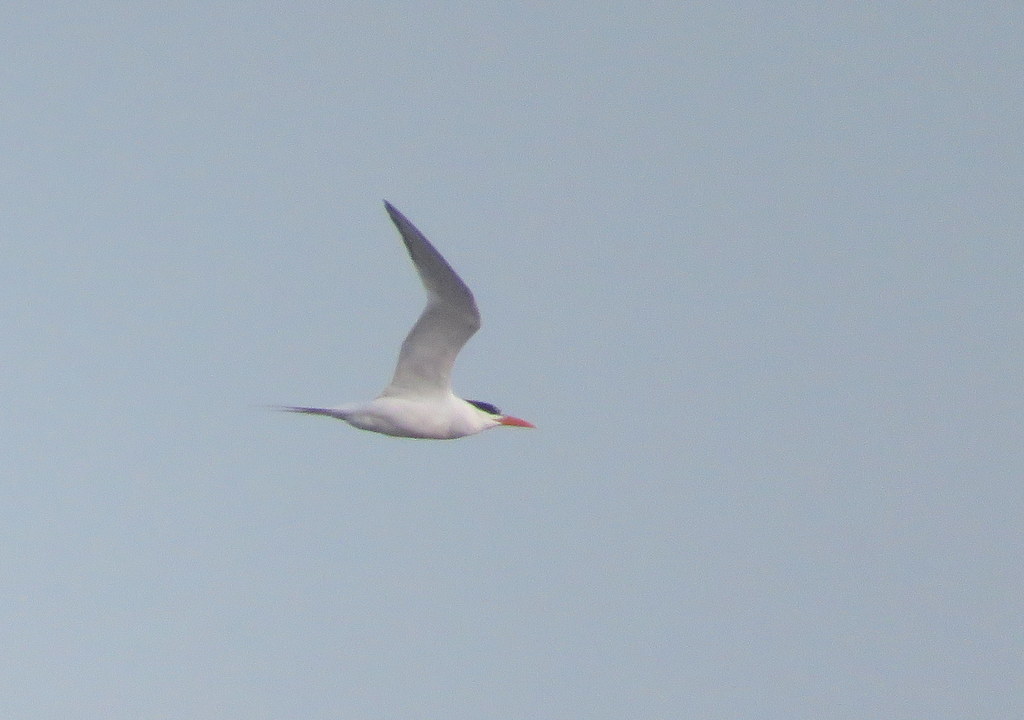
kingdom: Animalia
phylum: Chordata
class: Aves
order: Charadriiformes
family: Laridae
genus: Thalasseus
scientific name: Thalasseus maximus
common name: Royal tern
